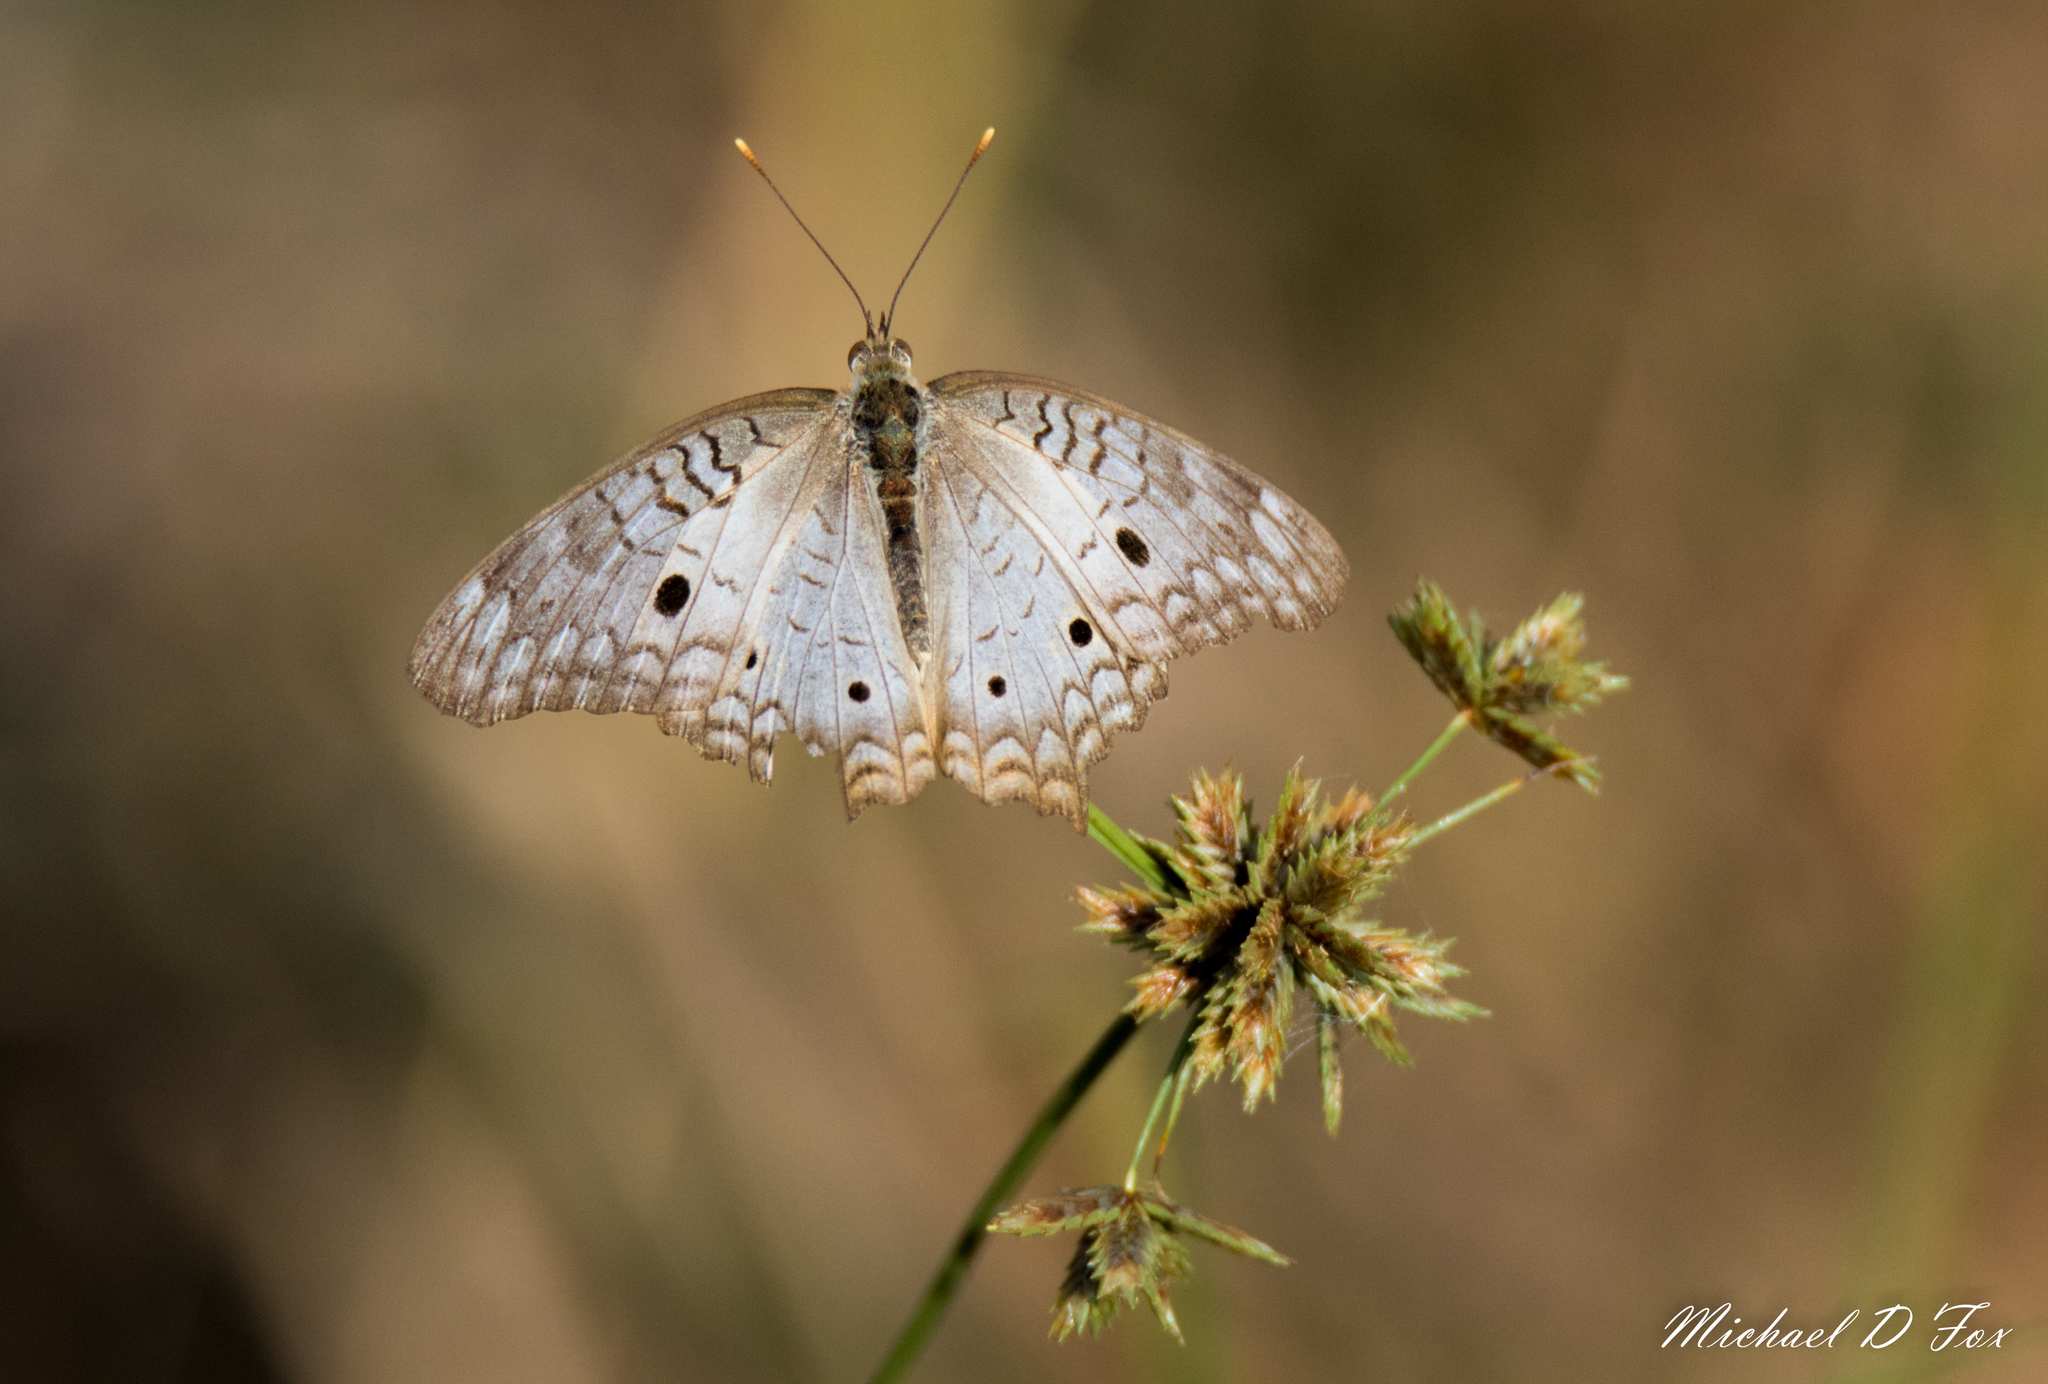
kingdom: Animalia
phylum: Arthropoda
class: Insecta
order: Lepidoptera
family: Nymphalidae
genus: Anartia
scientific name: Anartia jatrophae
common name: White peacock
